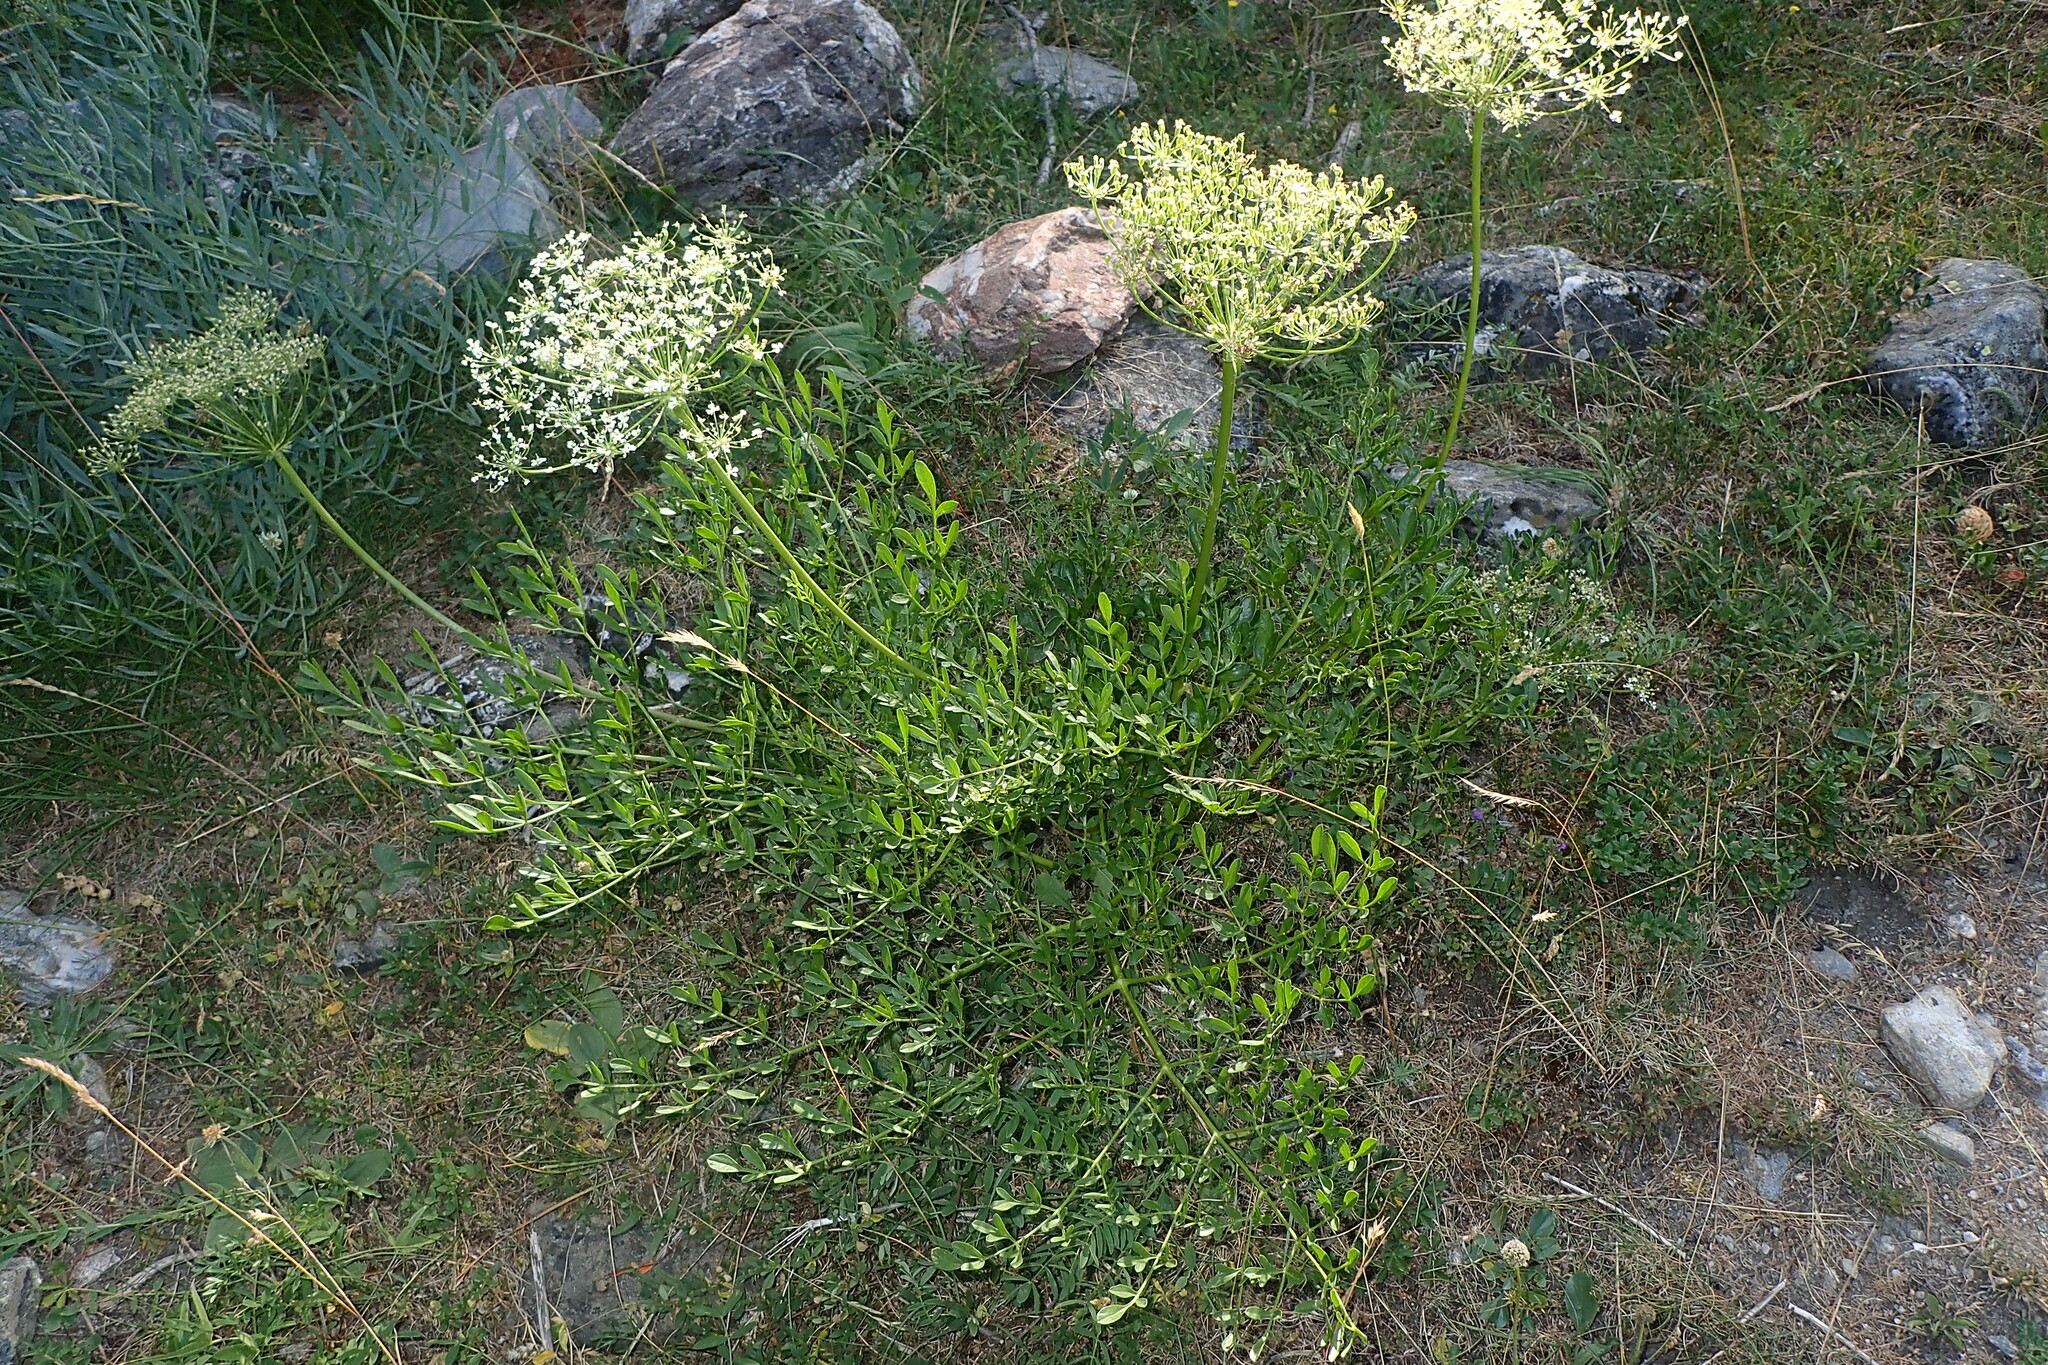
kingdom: Plantae
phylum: Tracheophyta
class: Magnoliopsida
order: Apiales
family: Apiaceae
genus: Laserpitium
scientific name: Laserpitium gallicum
